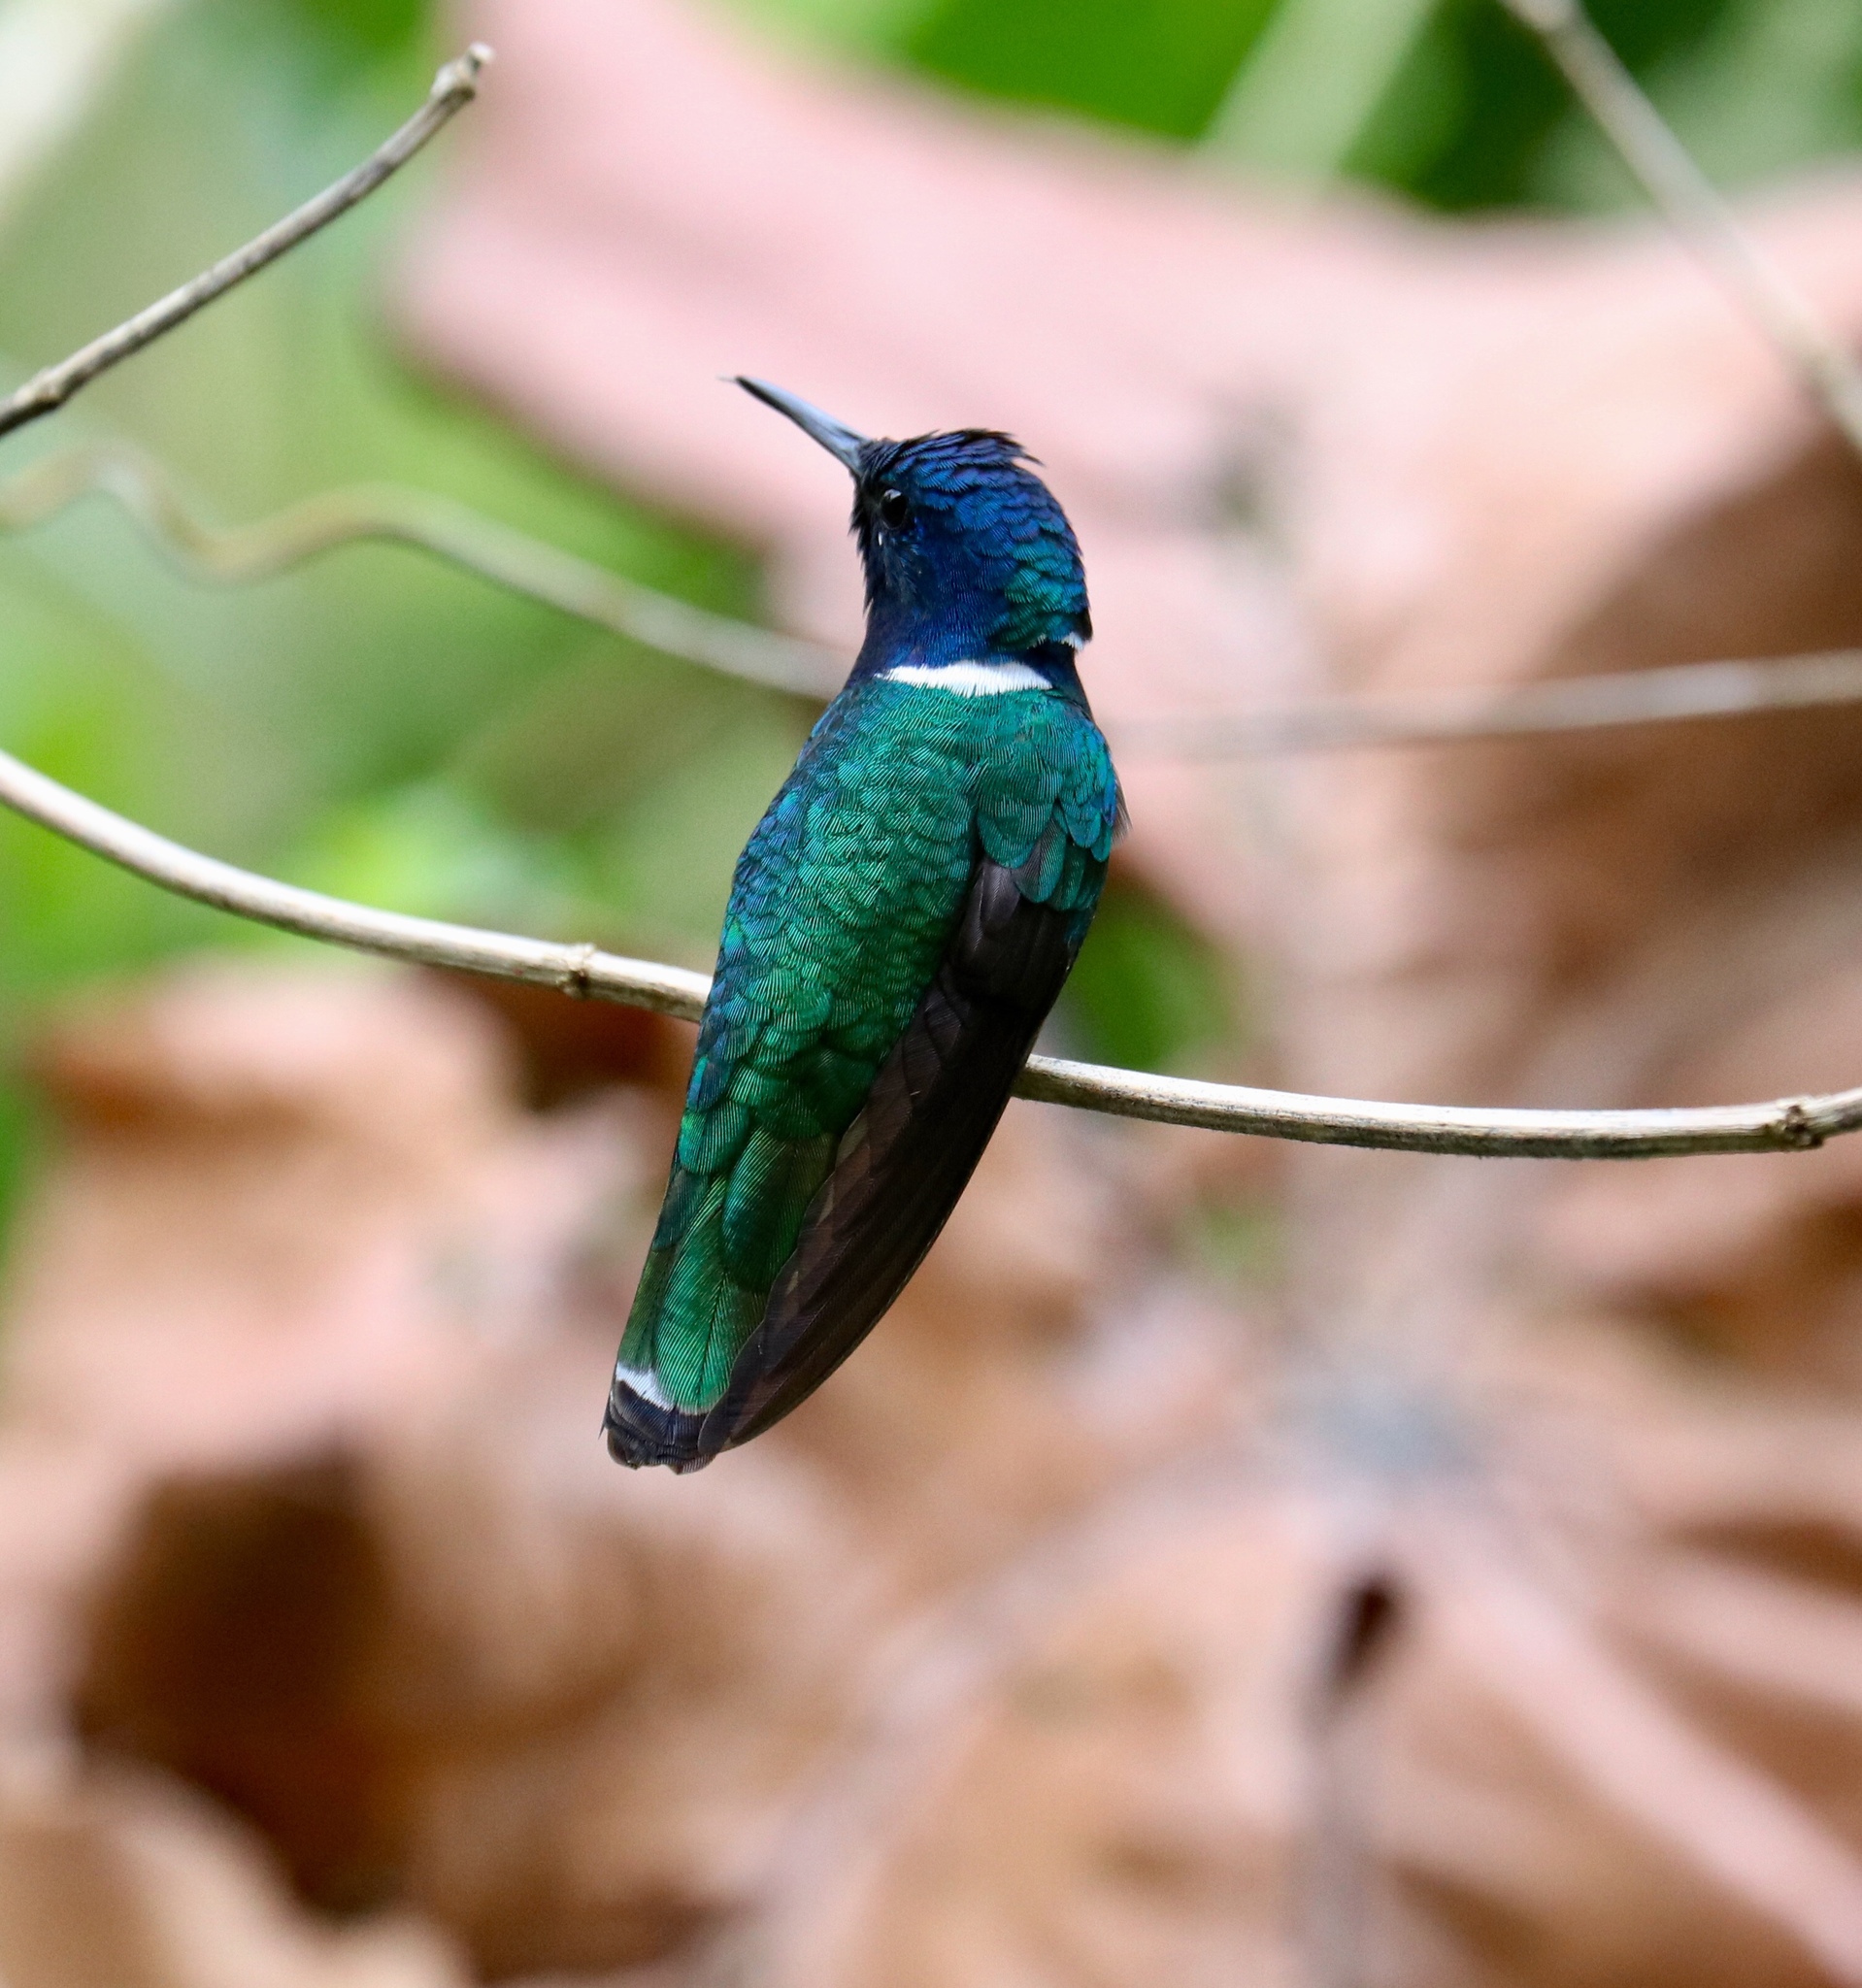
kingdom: Animalia
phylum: Chordata
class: Aves
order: Apodiformes
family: Trochilidae
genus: Florisuga
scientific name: Florisuga mellivora
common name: White-necked jacobin
